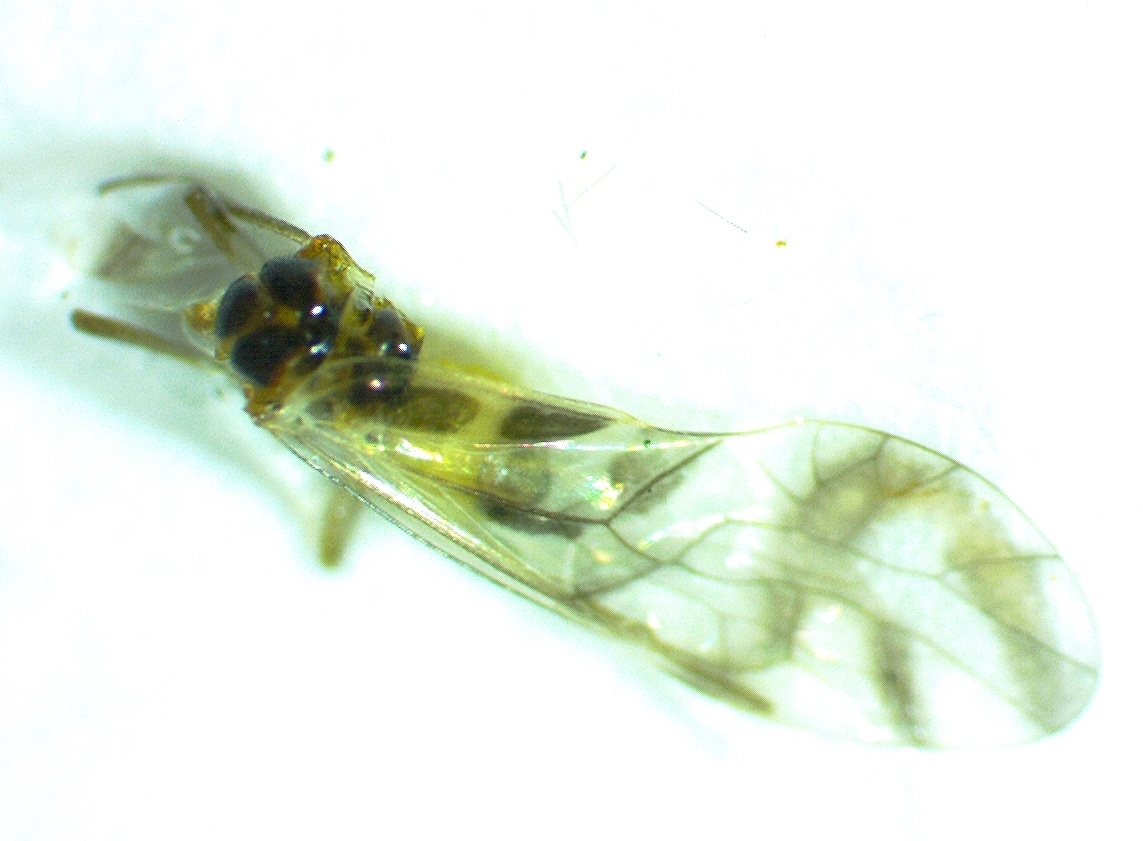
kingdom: Animalia
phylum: Arthropoda
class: Insecta
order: Psocodea
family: Stenopsocidae
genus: Graphopsocus
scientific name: Graphopsocus cruciatus
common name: Lizard bark louse
